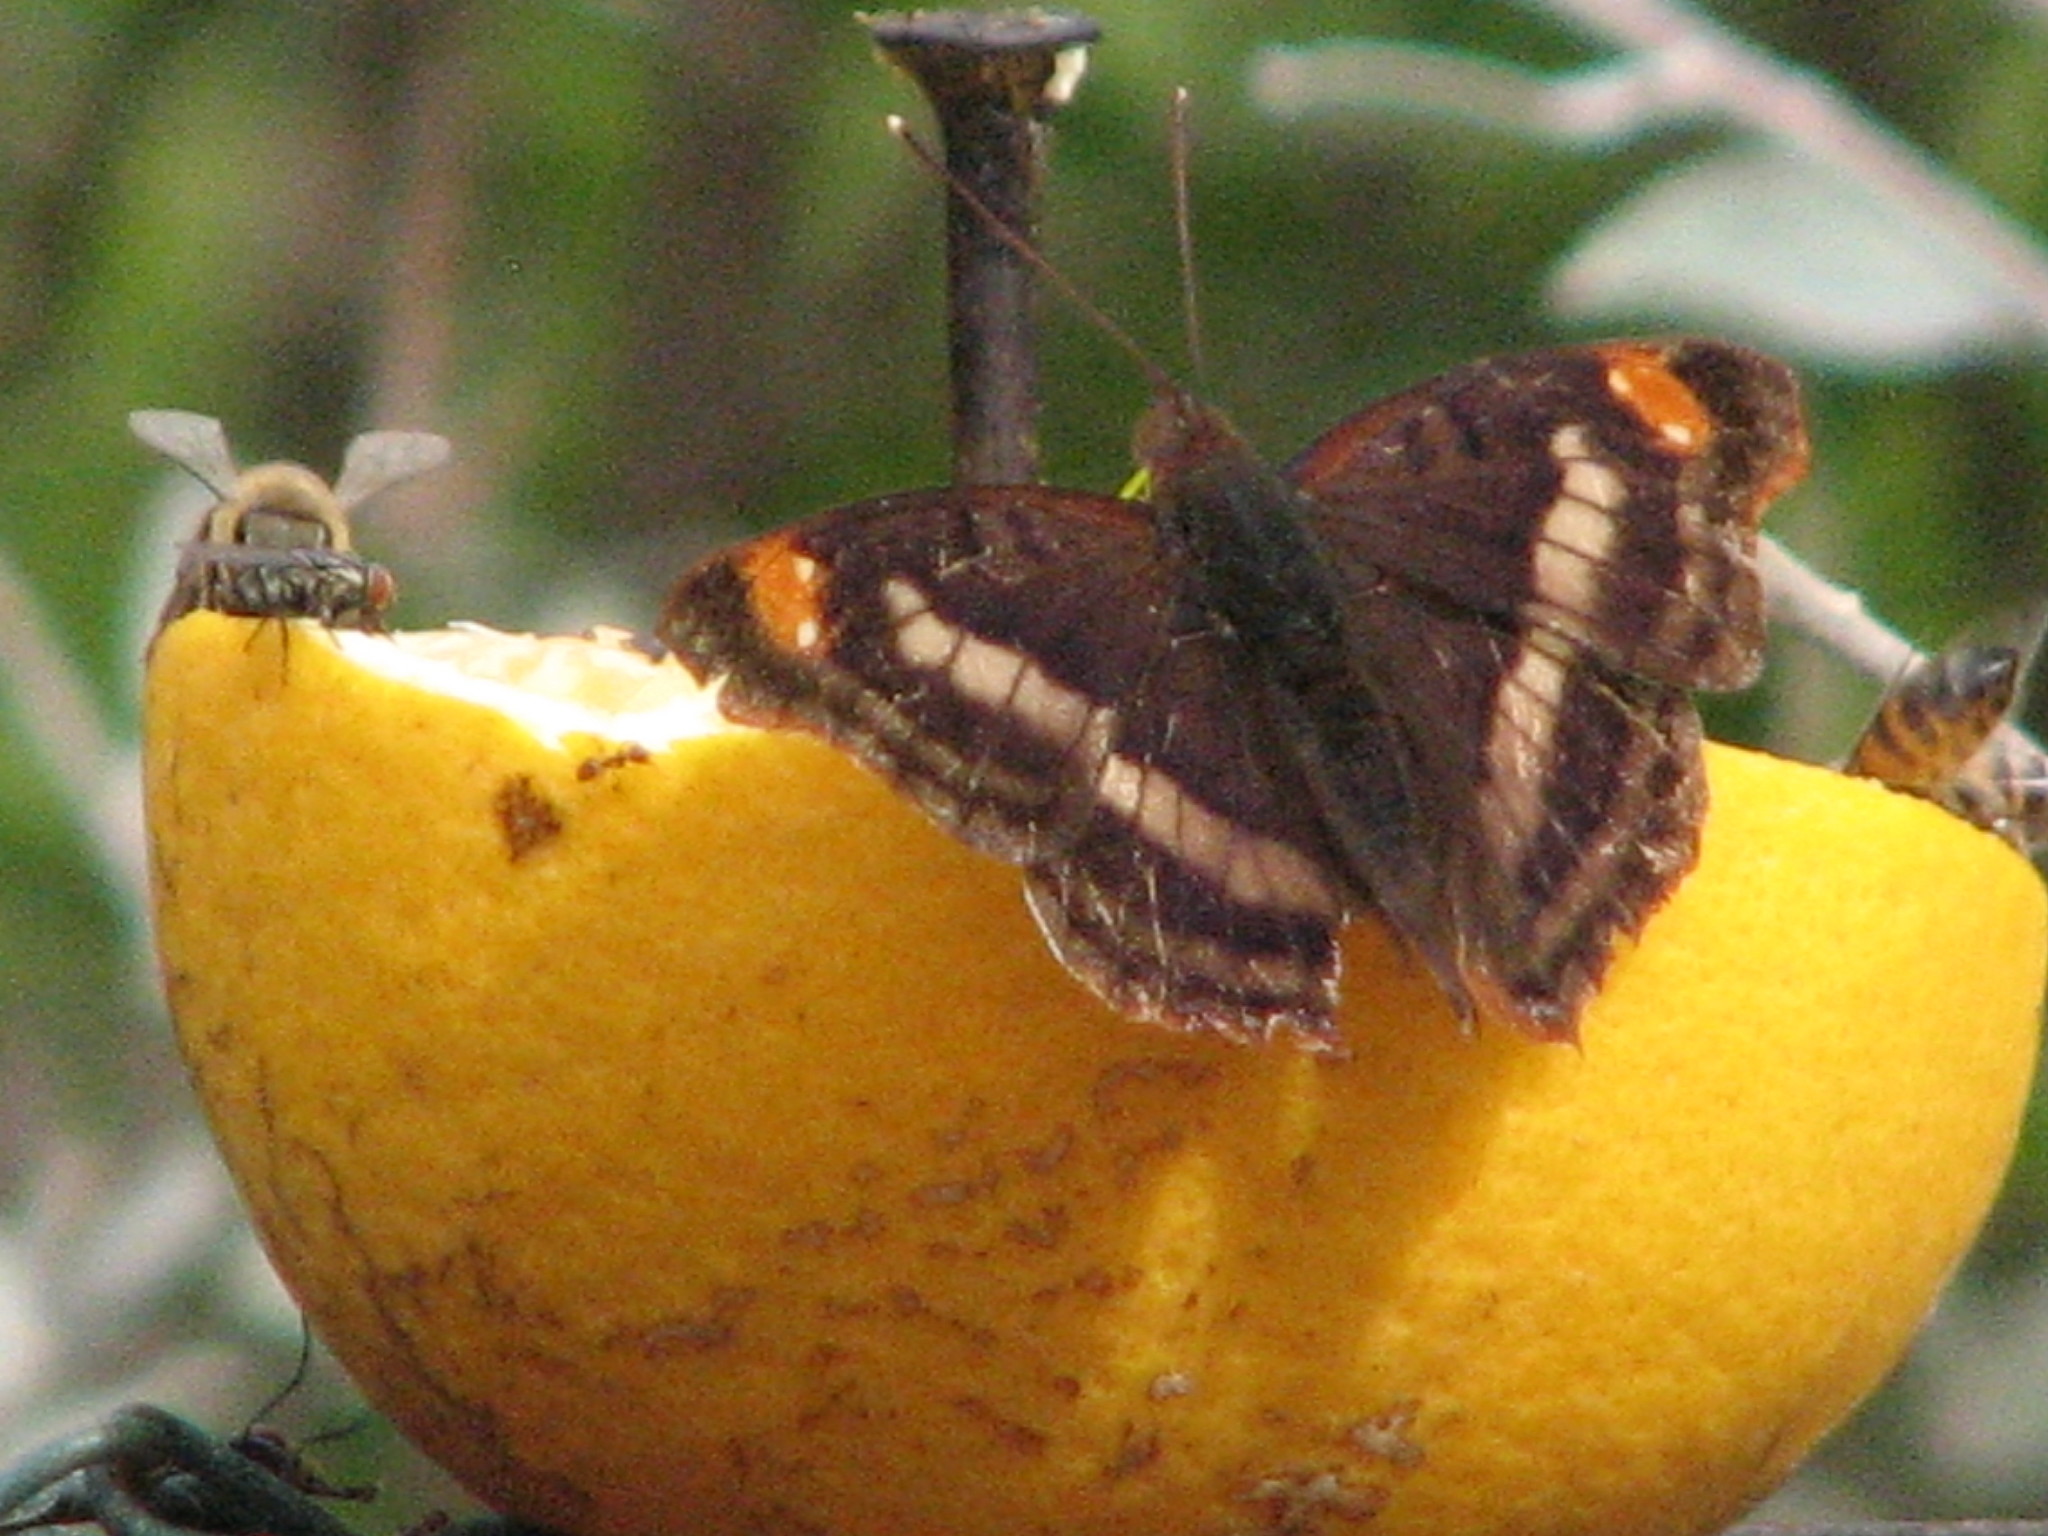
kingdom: Animalia
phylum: Arthropoda
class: Insecta
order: Lepidoptera
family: Nymphalidae
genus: Doxocopa
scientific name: Doxocopa pavon
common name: Pavon emperor
